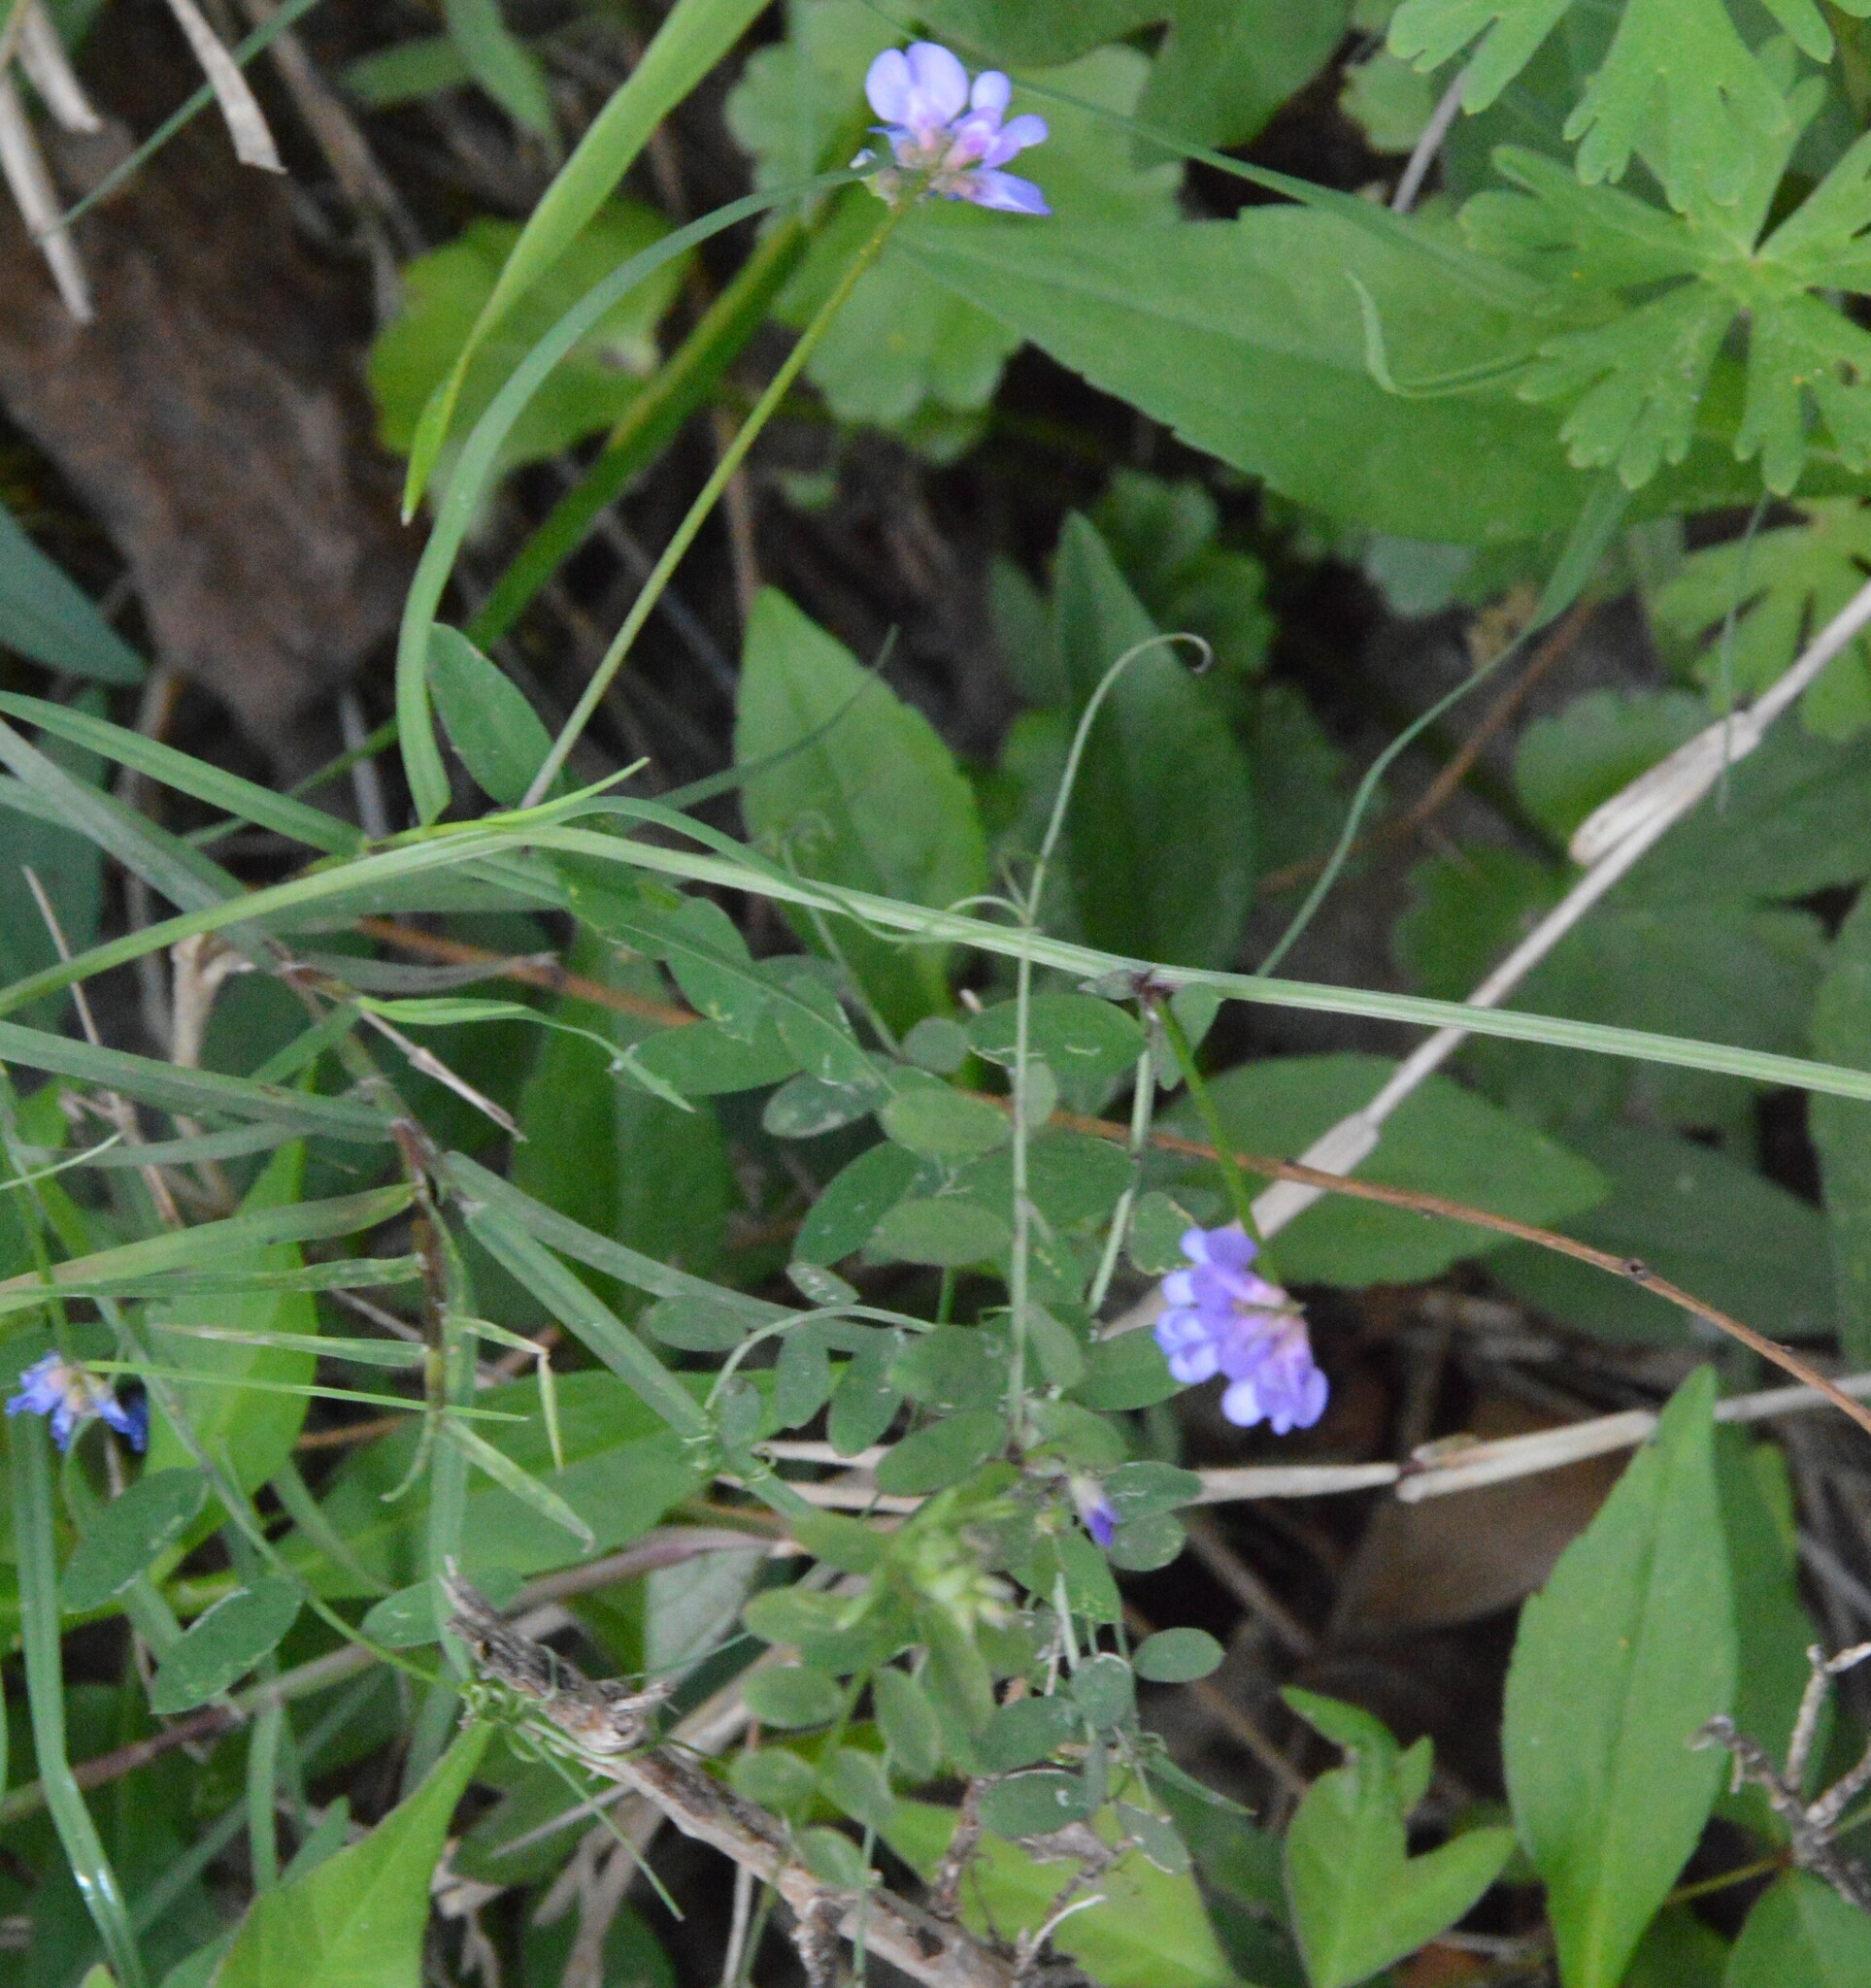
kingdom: Plantae
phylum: Tracheophyta
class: Magnoliopsida
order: Fabales
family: Fabaceae
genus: Vicia
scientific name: Vicia ludoviciana
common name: Louisiana vetch
